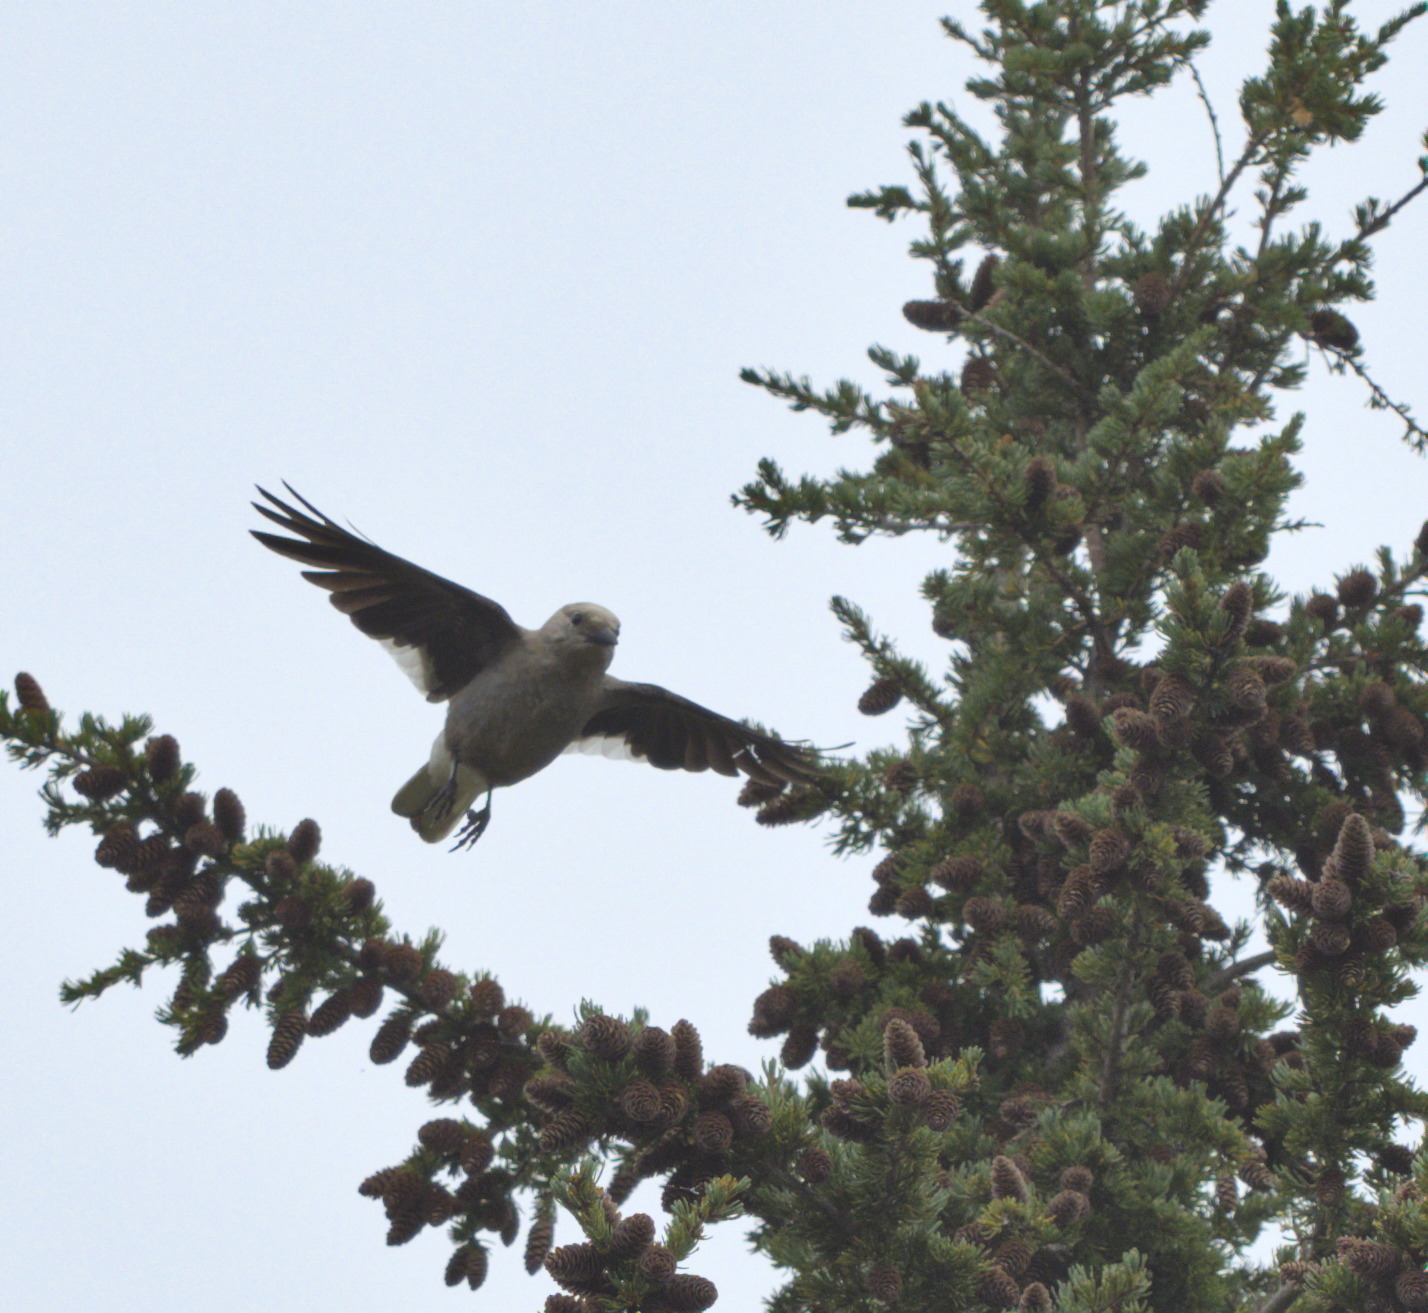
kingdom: Animalia
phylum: Chordata
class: Aves
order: Passeriformes
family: Corvidae
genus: Nucifraga
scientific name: Nucifraga columbiana
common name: Clark's nutcracker
